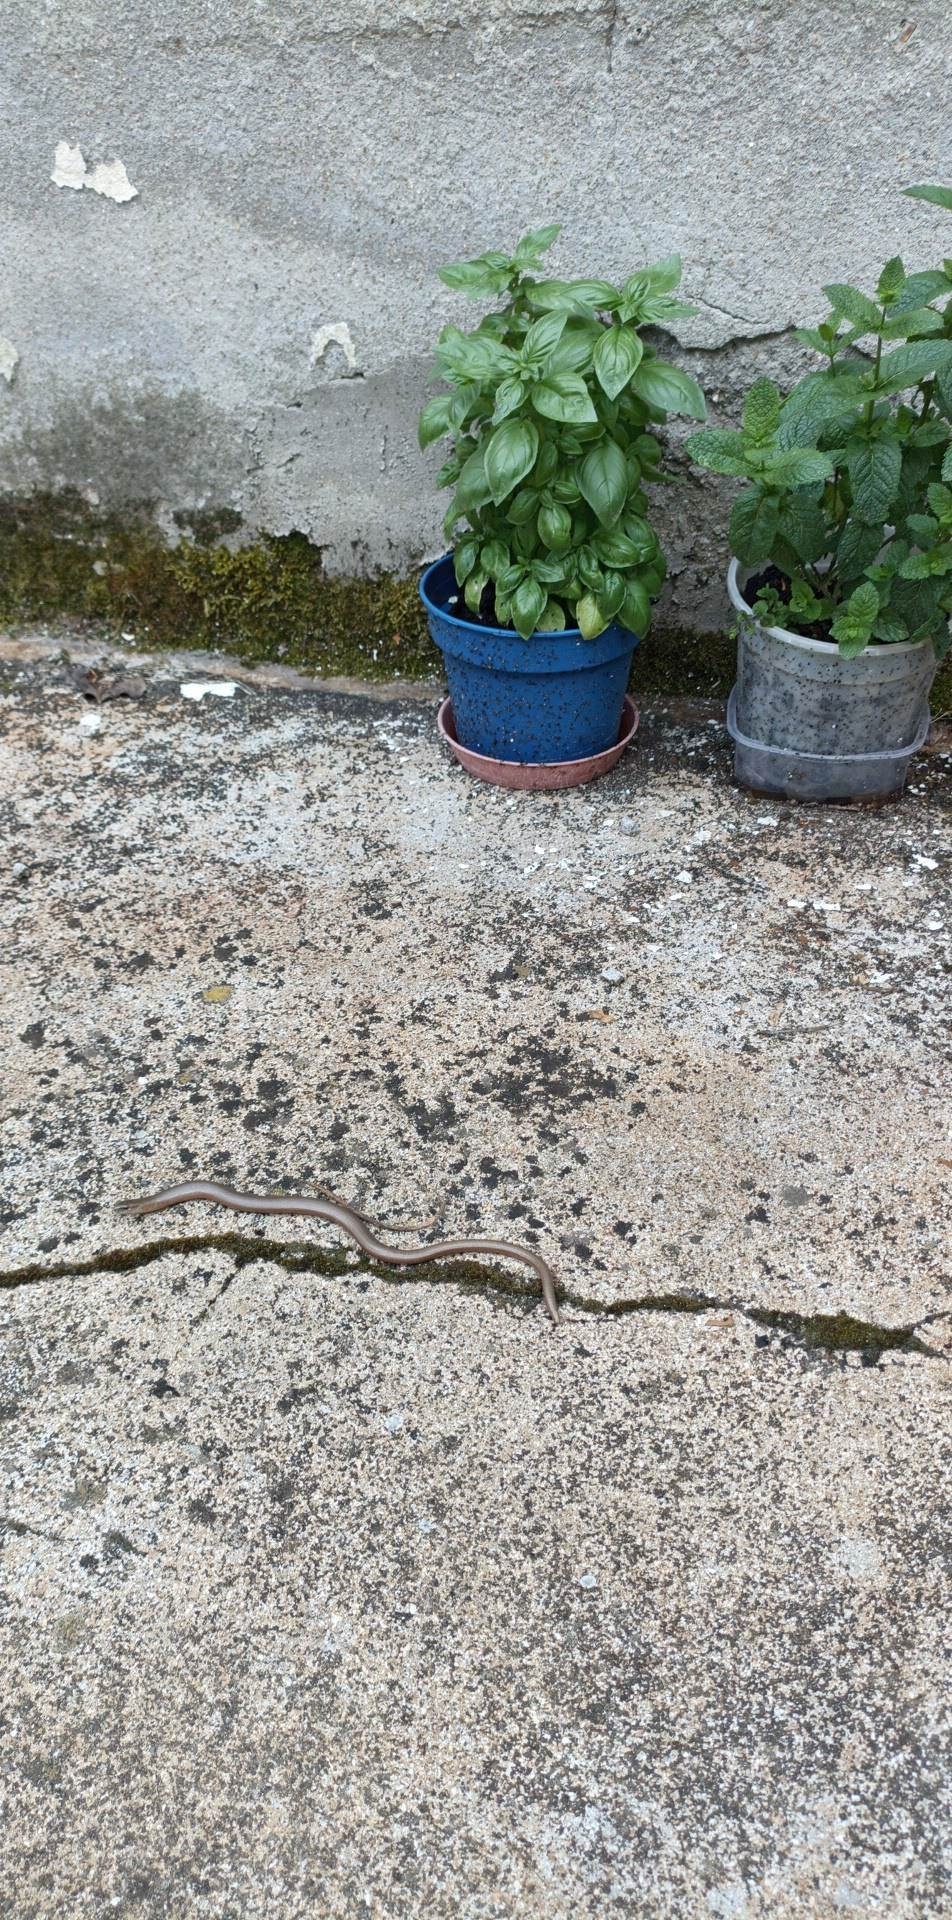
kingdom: Animalia
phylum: Chordata
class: Squamata
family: Anguidae
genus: Anguis
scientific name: Anguis fragilis
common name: Slow worm
